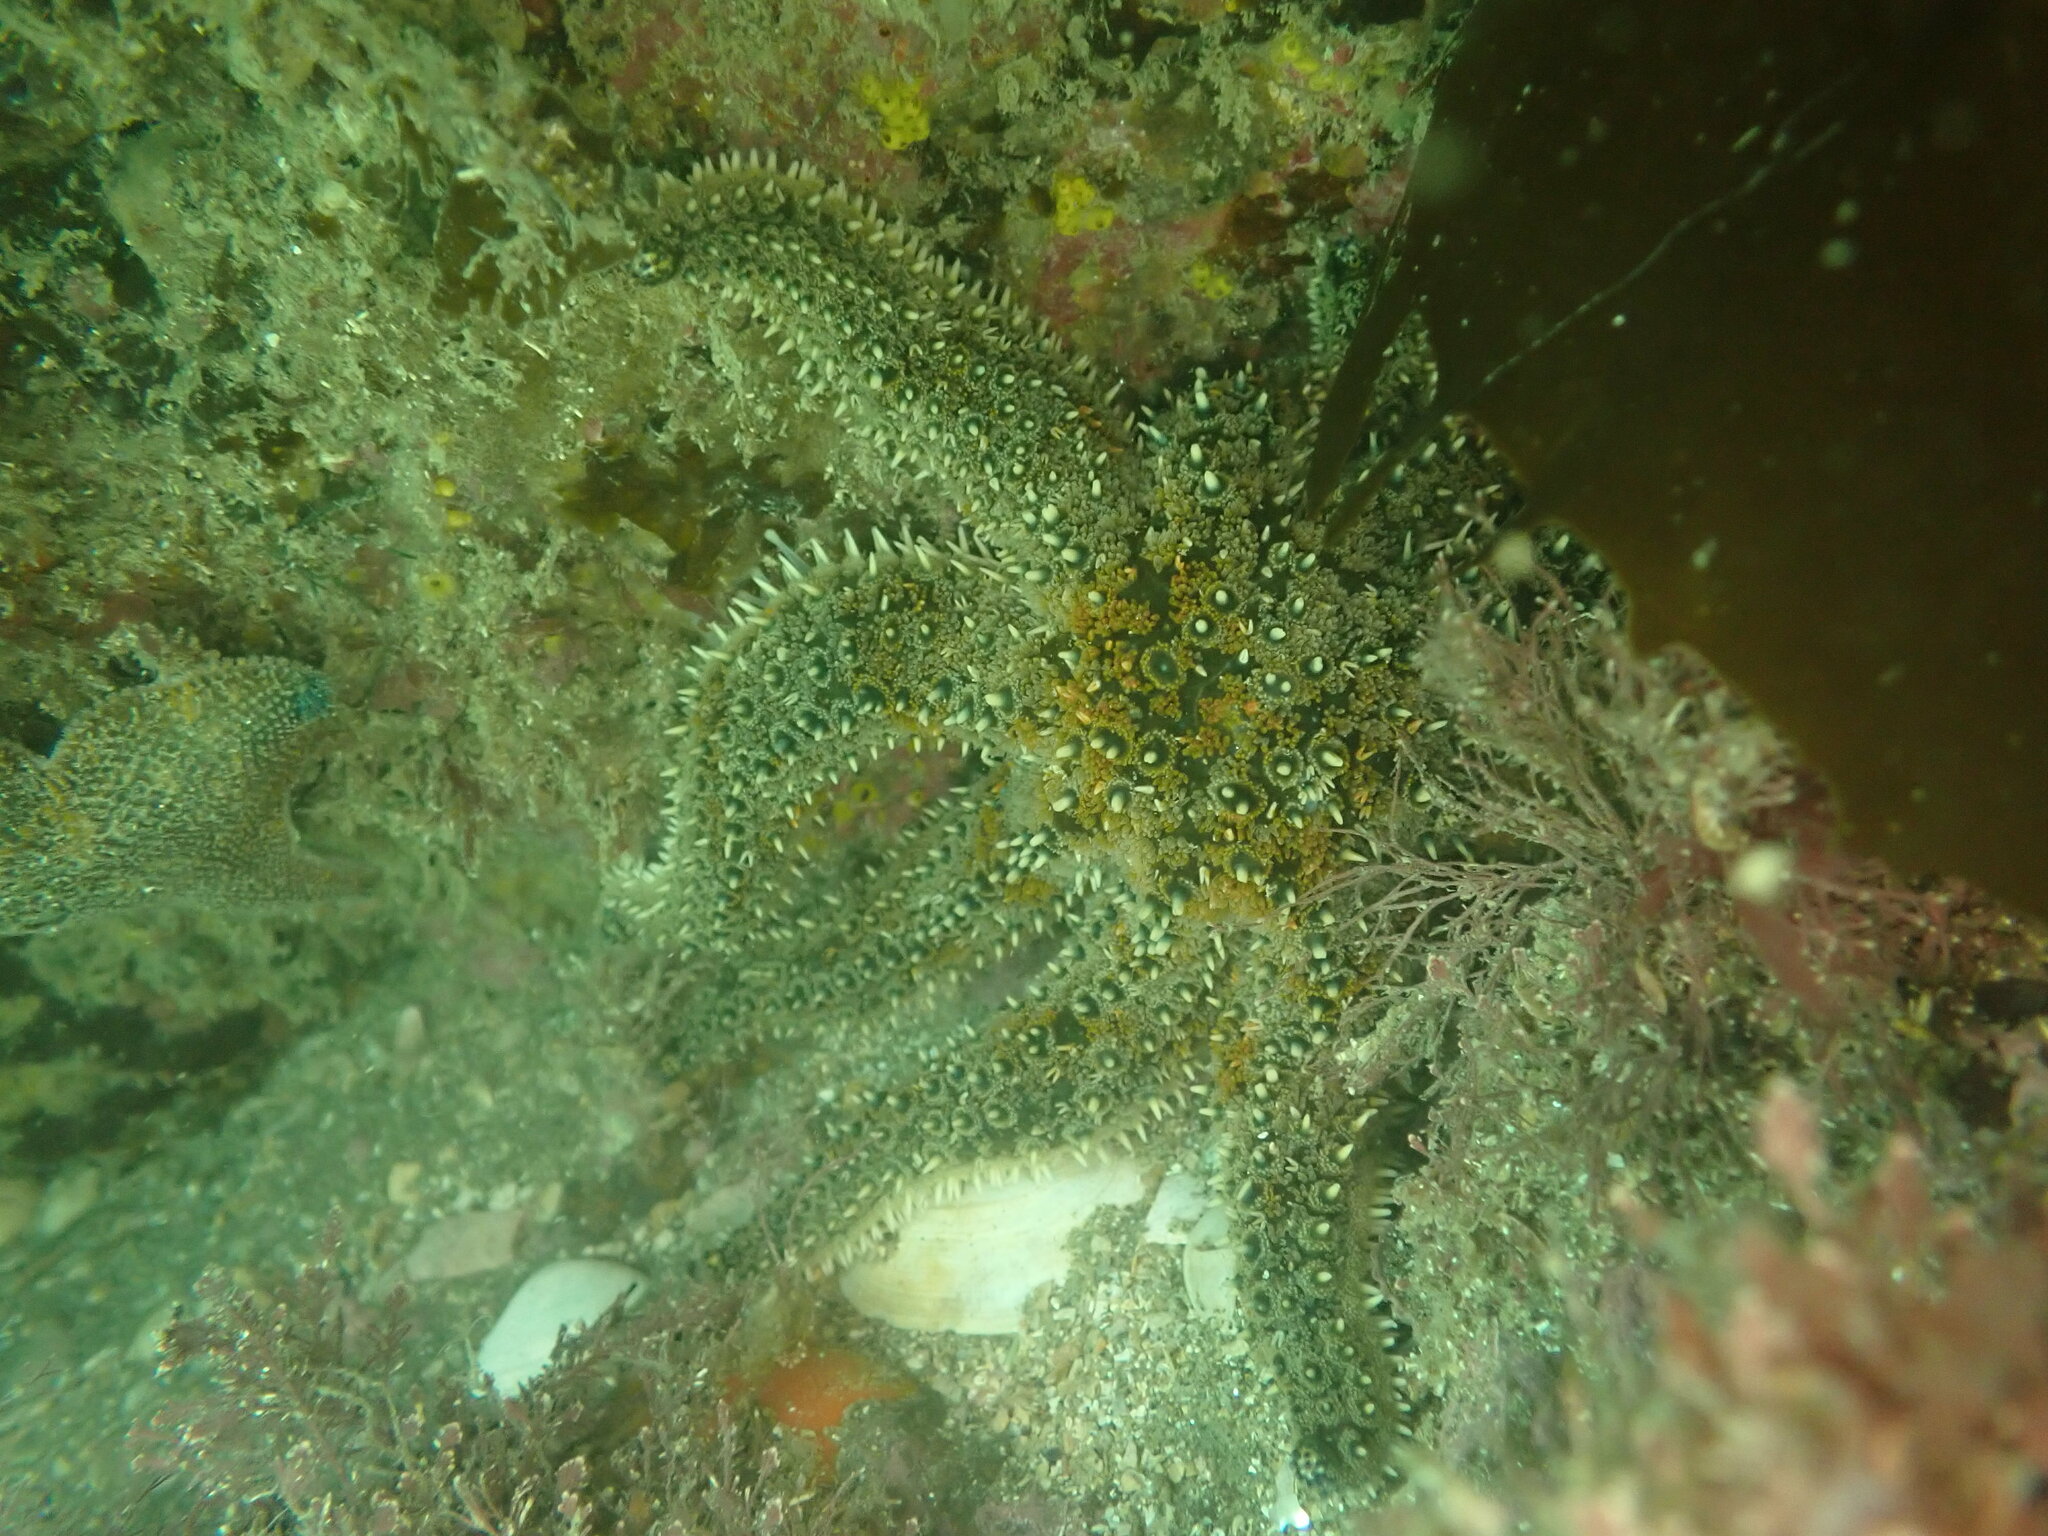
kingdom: Animalia
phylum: Echinodermata
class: Asteroidea
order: Forcipulatida
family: Asteriidae
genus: Coscinasterias
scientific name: Coscinasterias muricata
